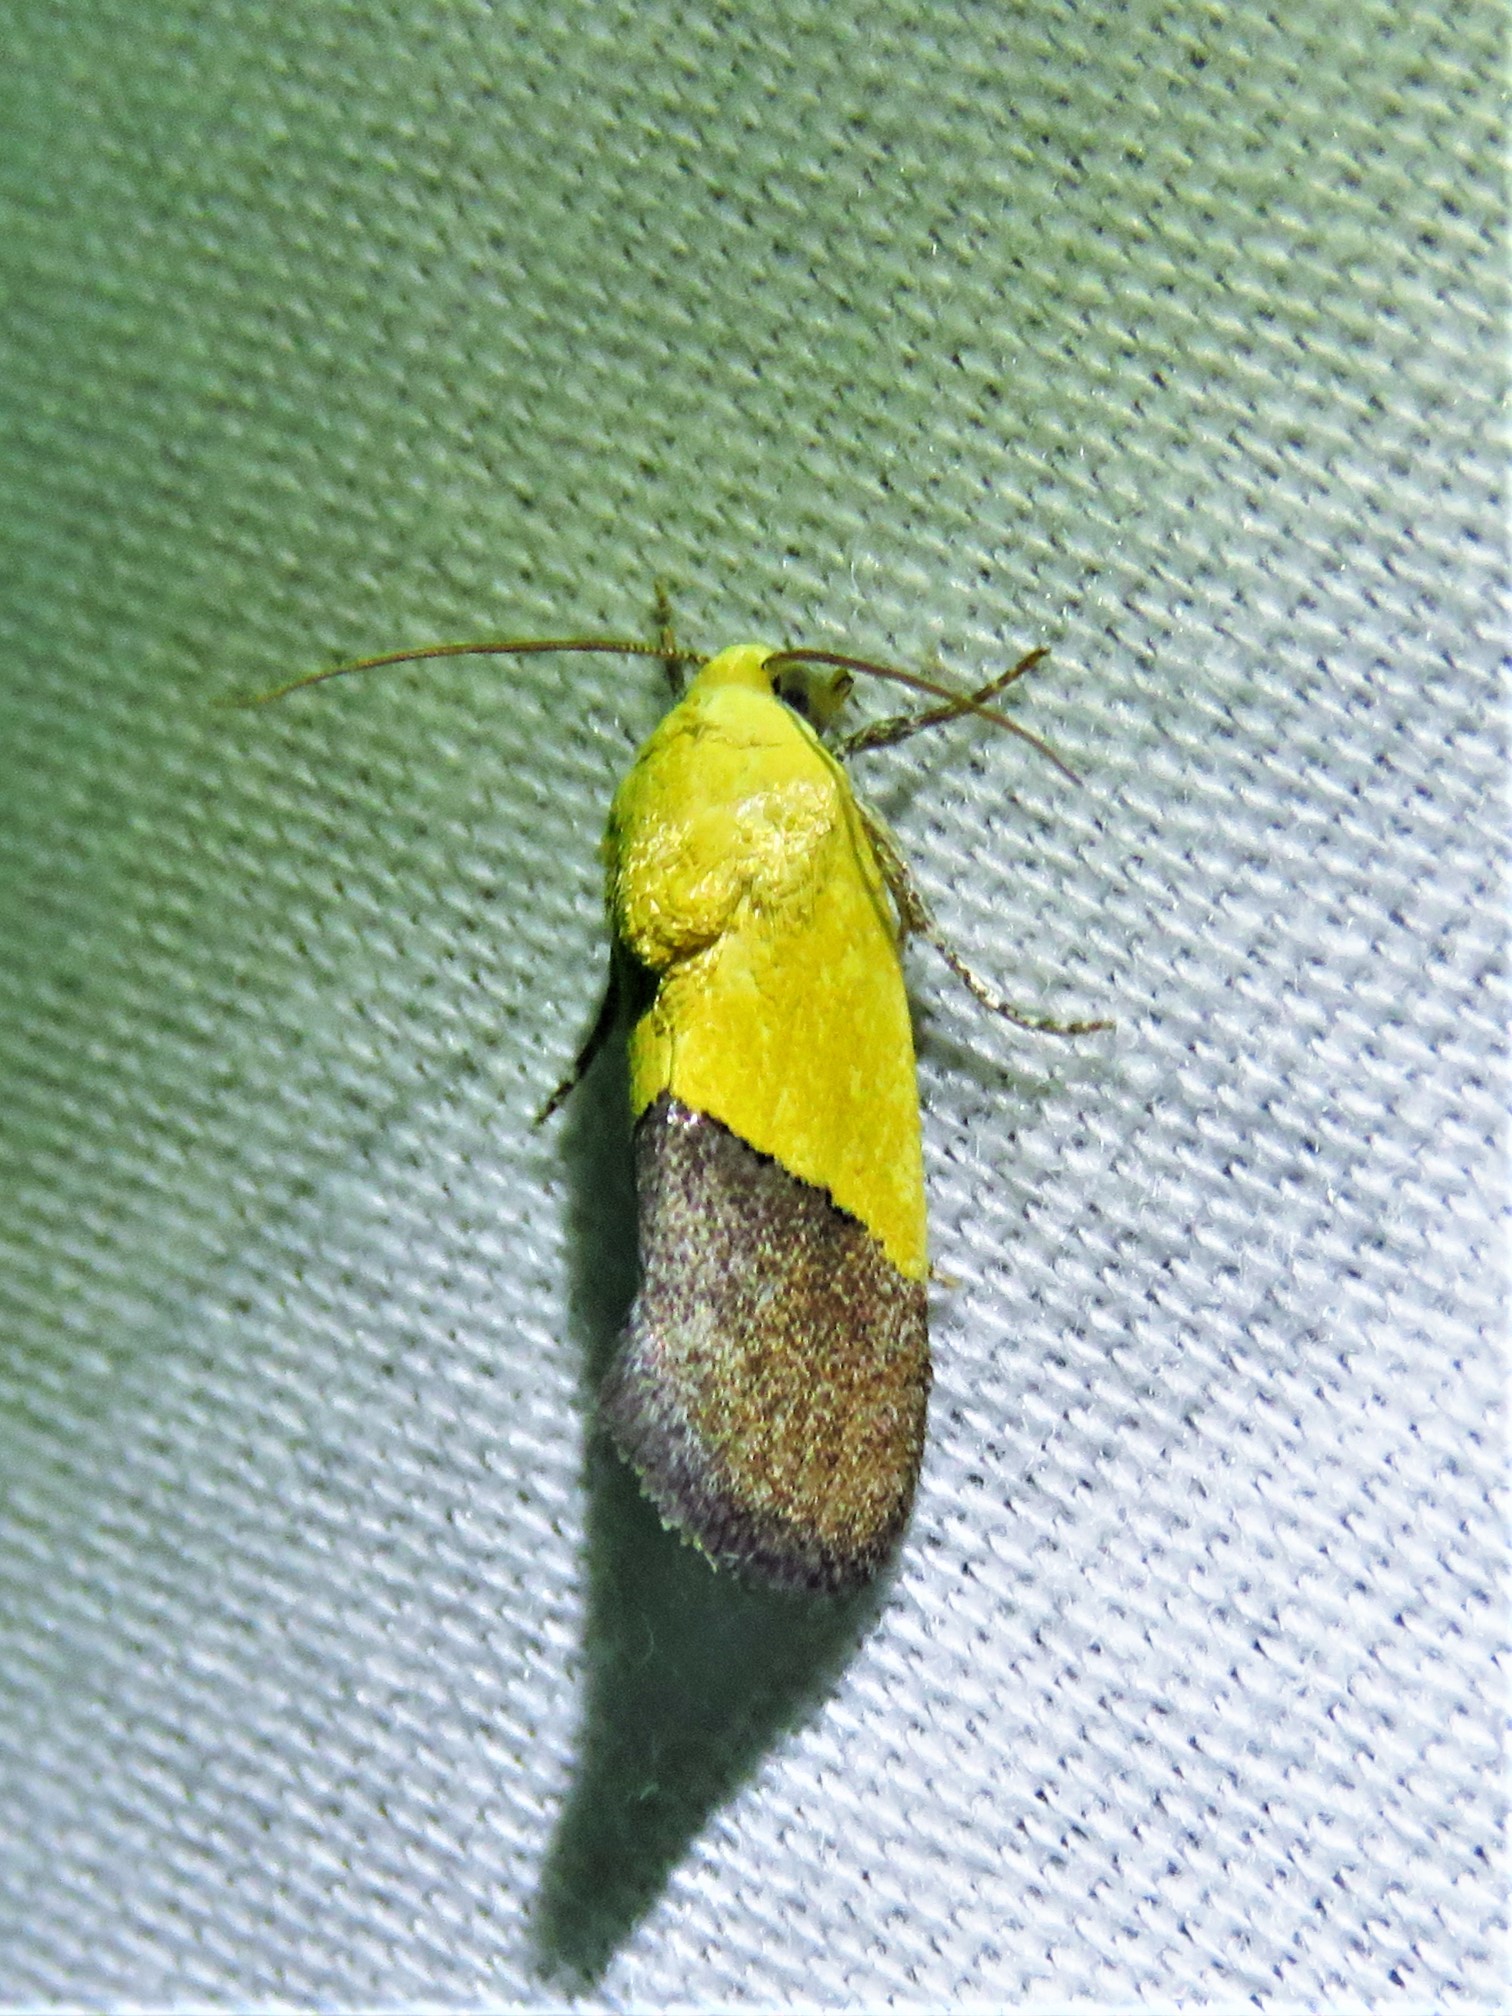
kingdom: Animalia
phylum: Arthropoda
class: Insecta
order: Lepidoptera
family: Noctuidae
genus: Acontia
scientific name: Acontia semiflava
